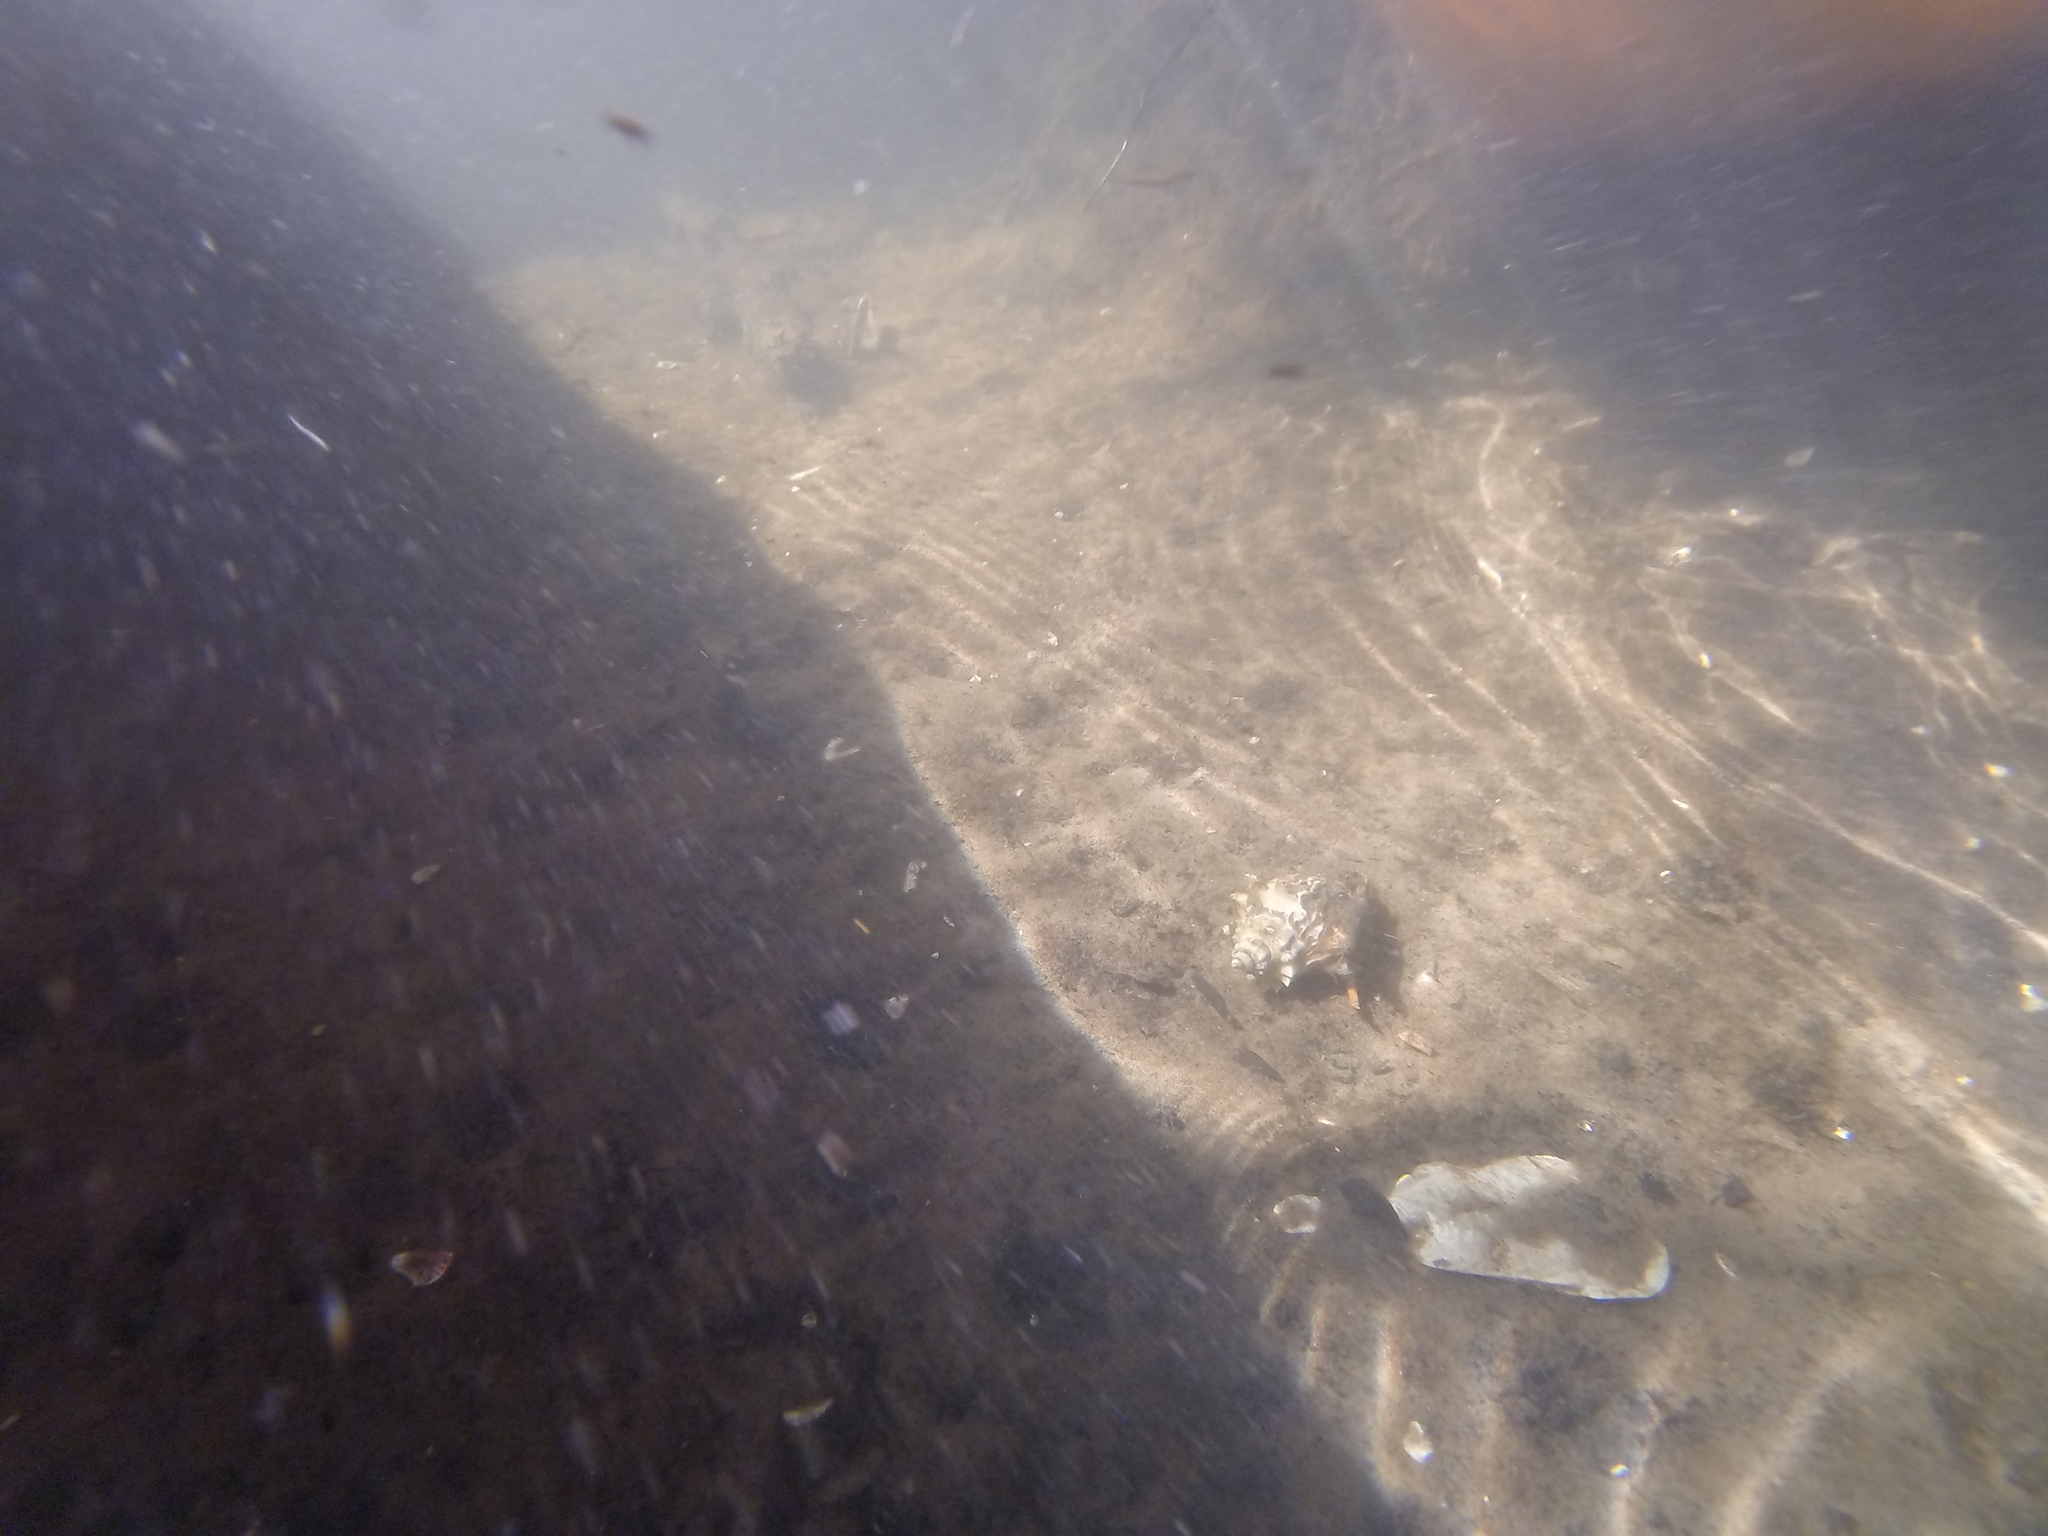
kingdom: Animalia
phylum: Mollusca
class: Gastropoda
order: Neogastropoda
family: Melongenidae
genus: Melongena
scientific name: Melongena corona
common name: American crown conch
